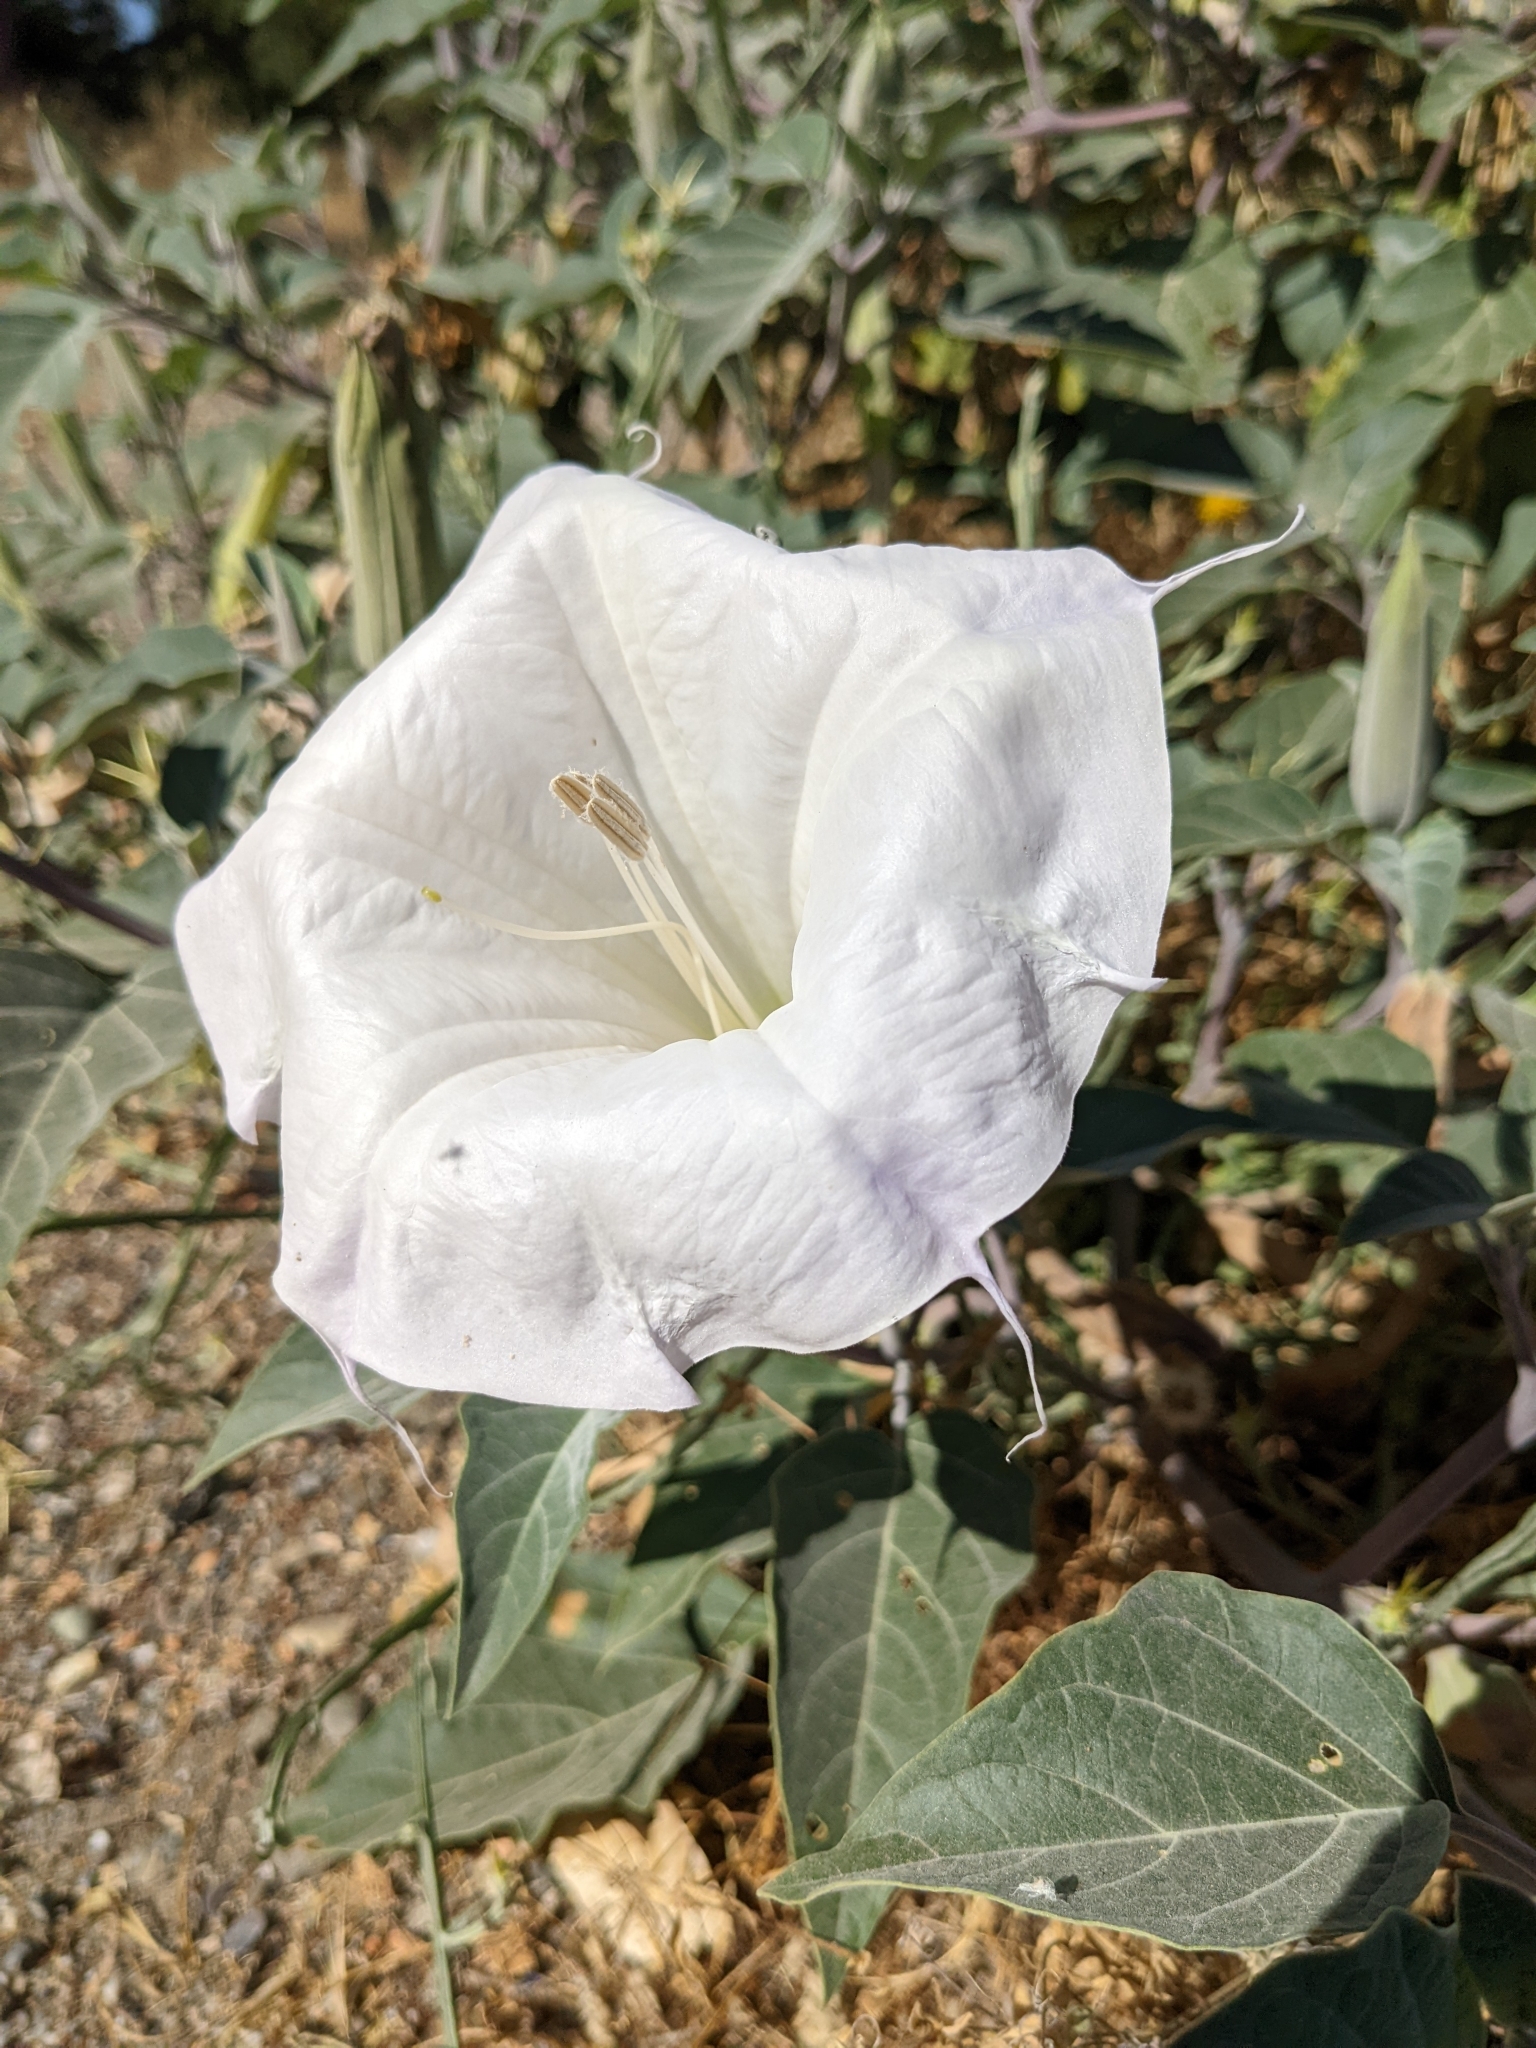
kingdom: Plantae
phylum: Tracheophyta
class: Magnoliopsida
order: Solanales
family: Solanaceae
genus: Datura
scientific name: Datura wrightii
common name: Sacred thorn-apple
